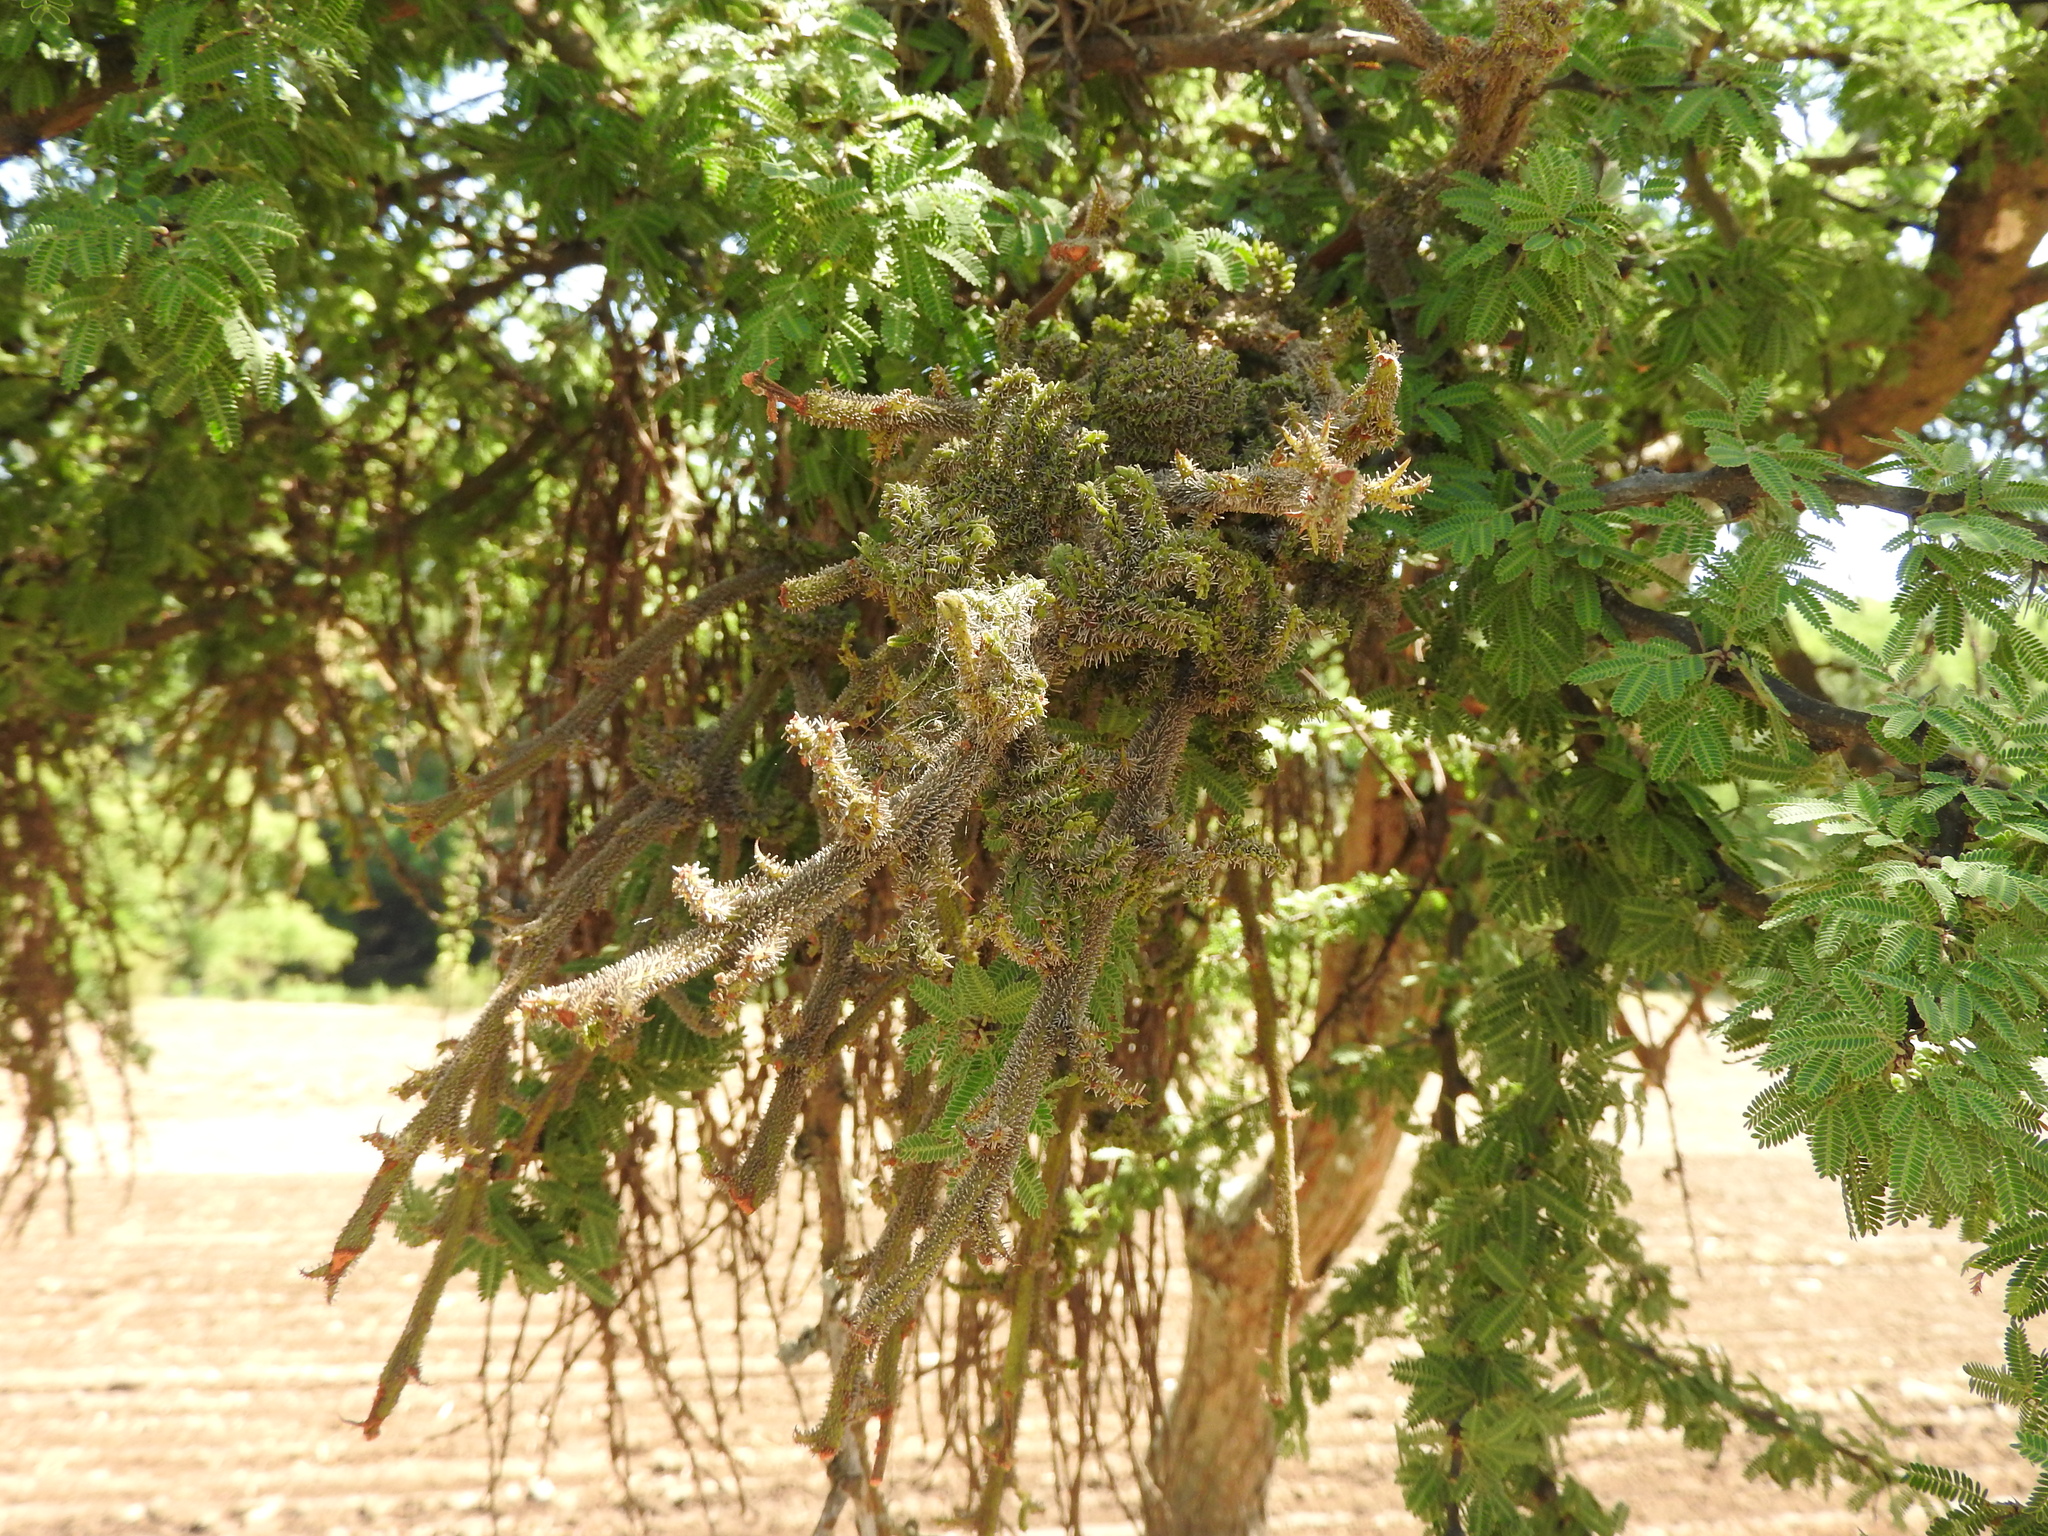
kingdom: Plantae
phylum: Tracheophyta
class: Magnoliopsida
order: Fabales
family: Fabaceae
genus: Vachellia
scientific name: Vachellia schaffneri
